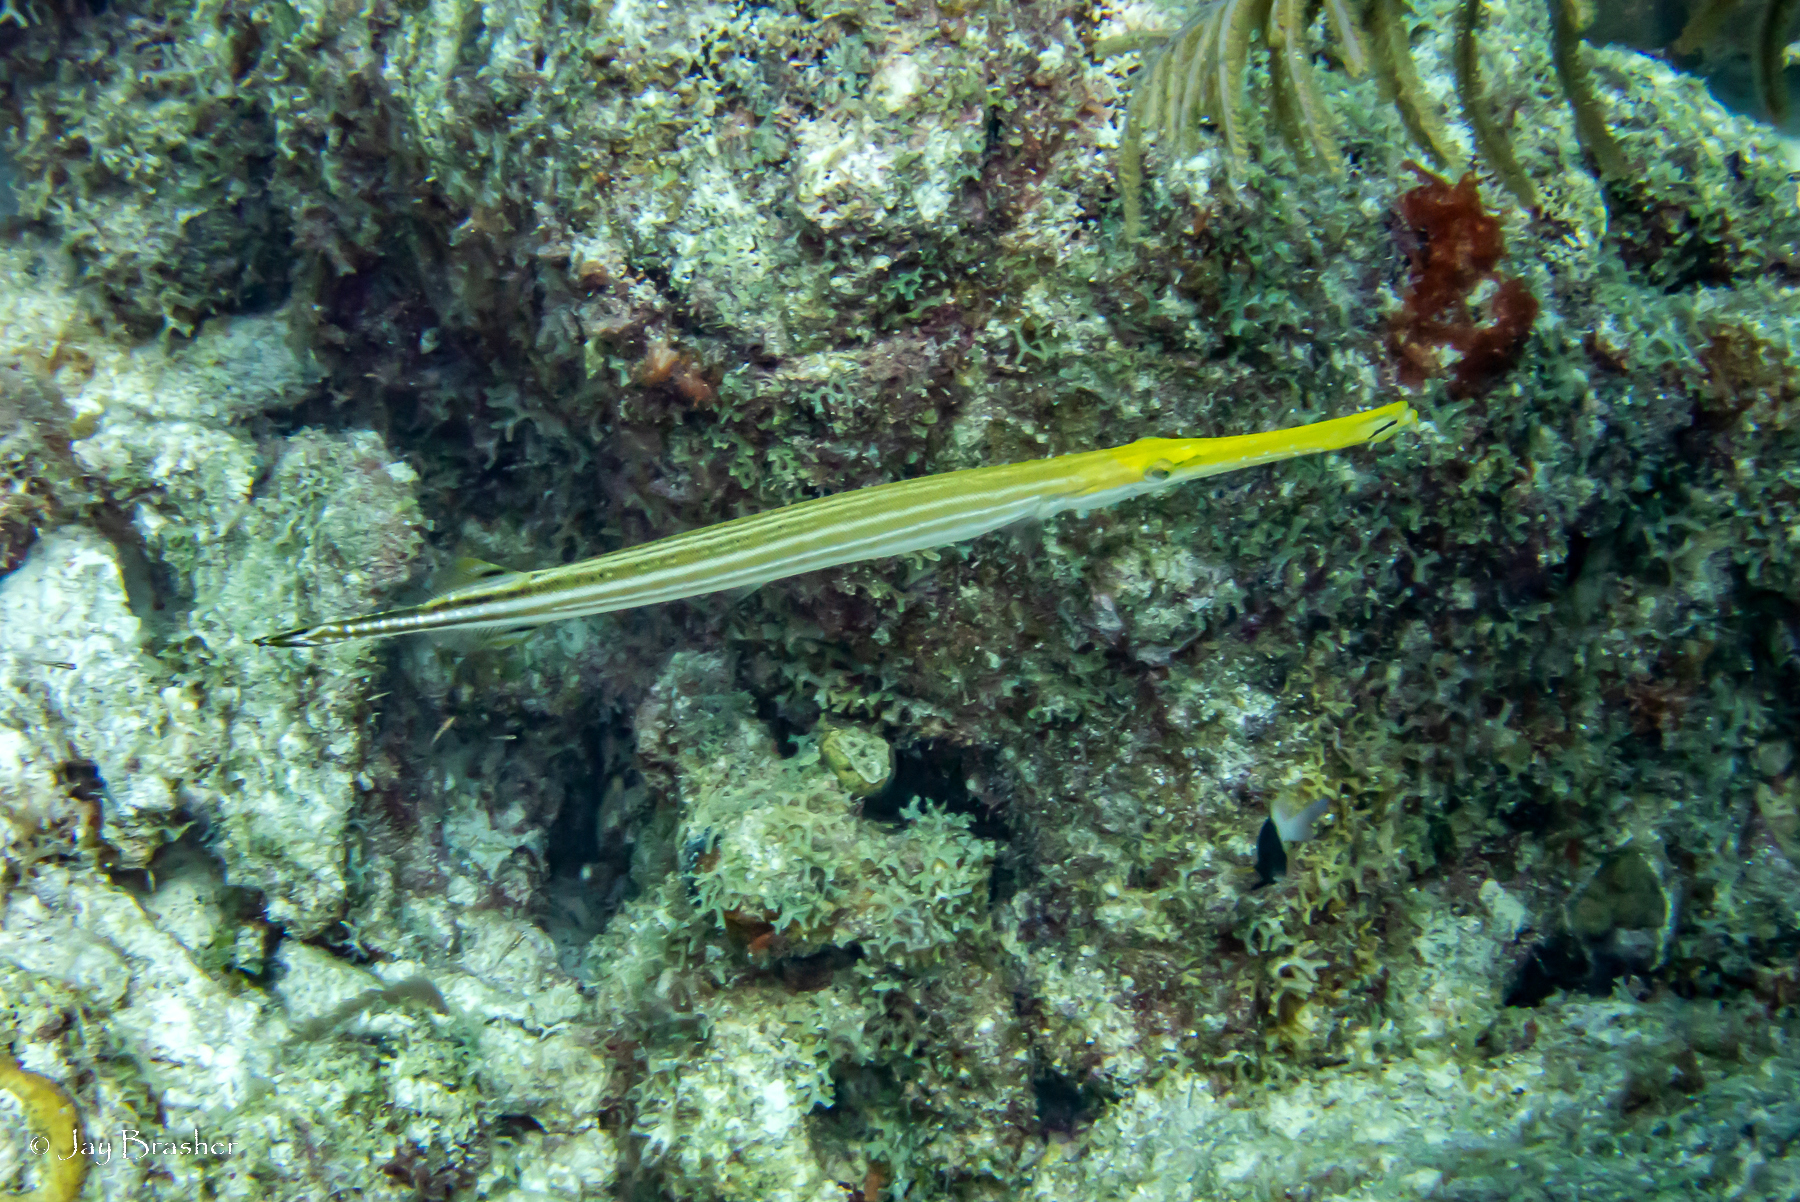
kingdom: Animalia
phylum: Chordata
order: Syngnathiformes
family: Aulostomidae
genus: Aulostomus
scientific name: Aulostomus maculatus
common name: West atlantic trumpetfish
